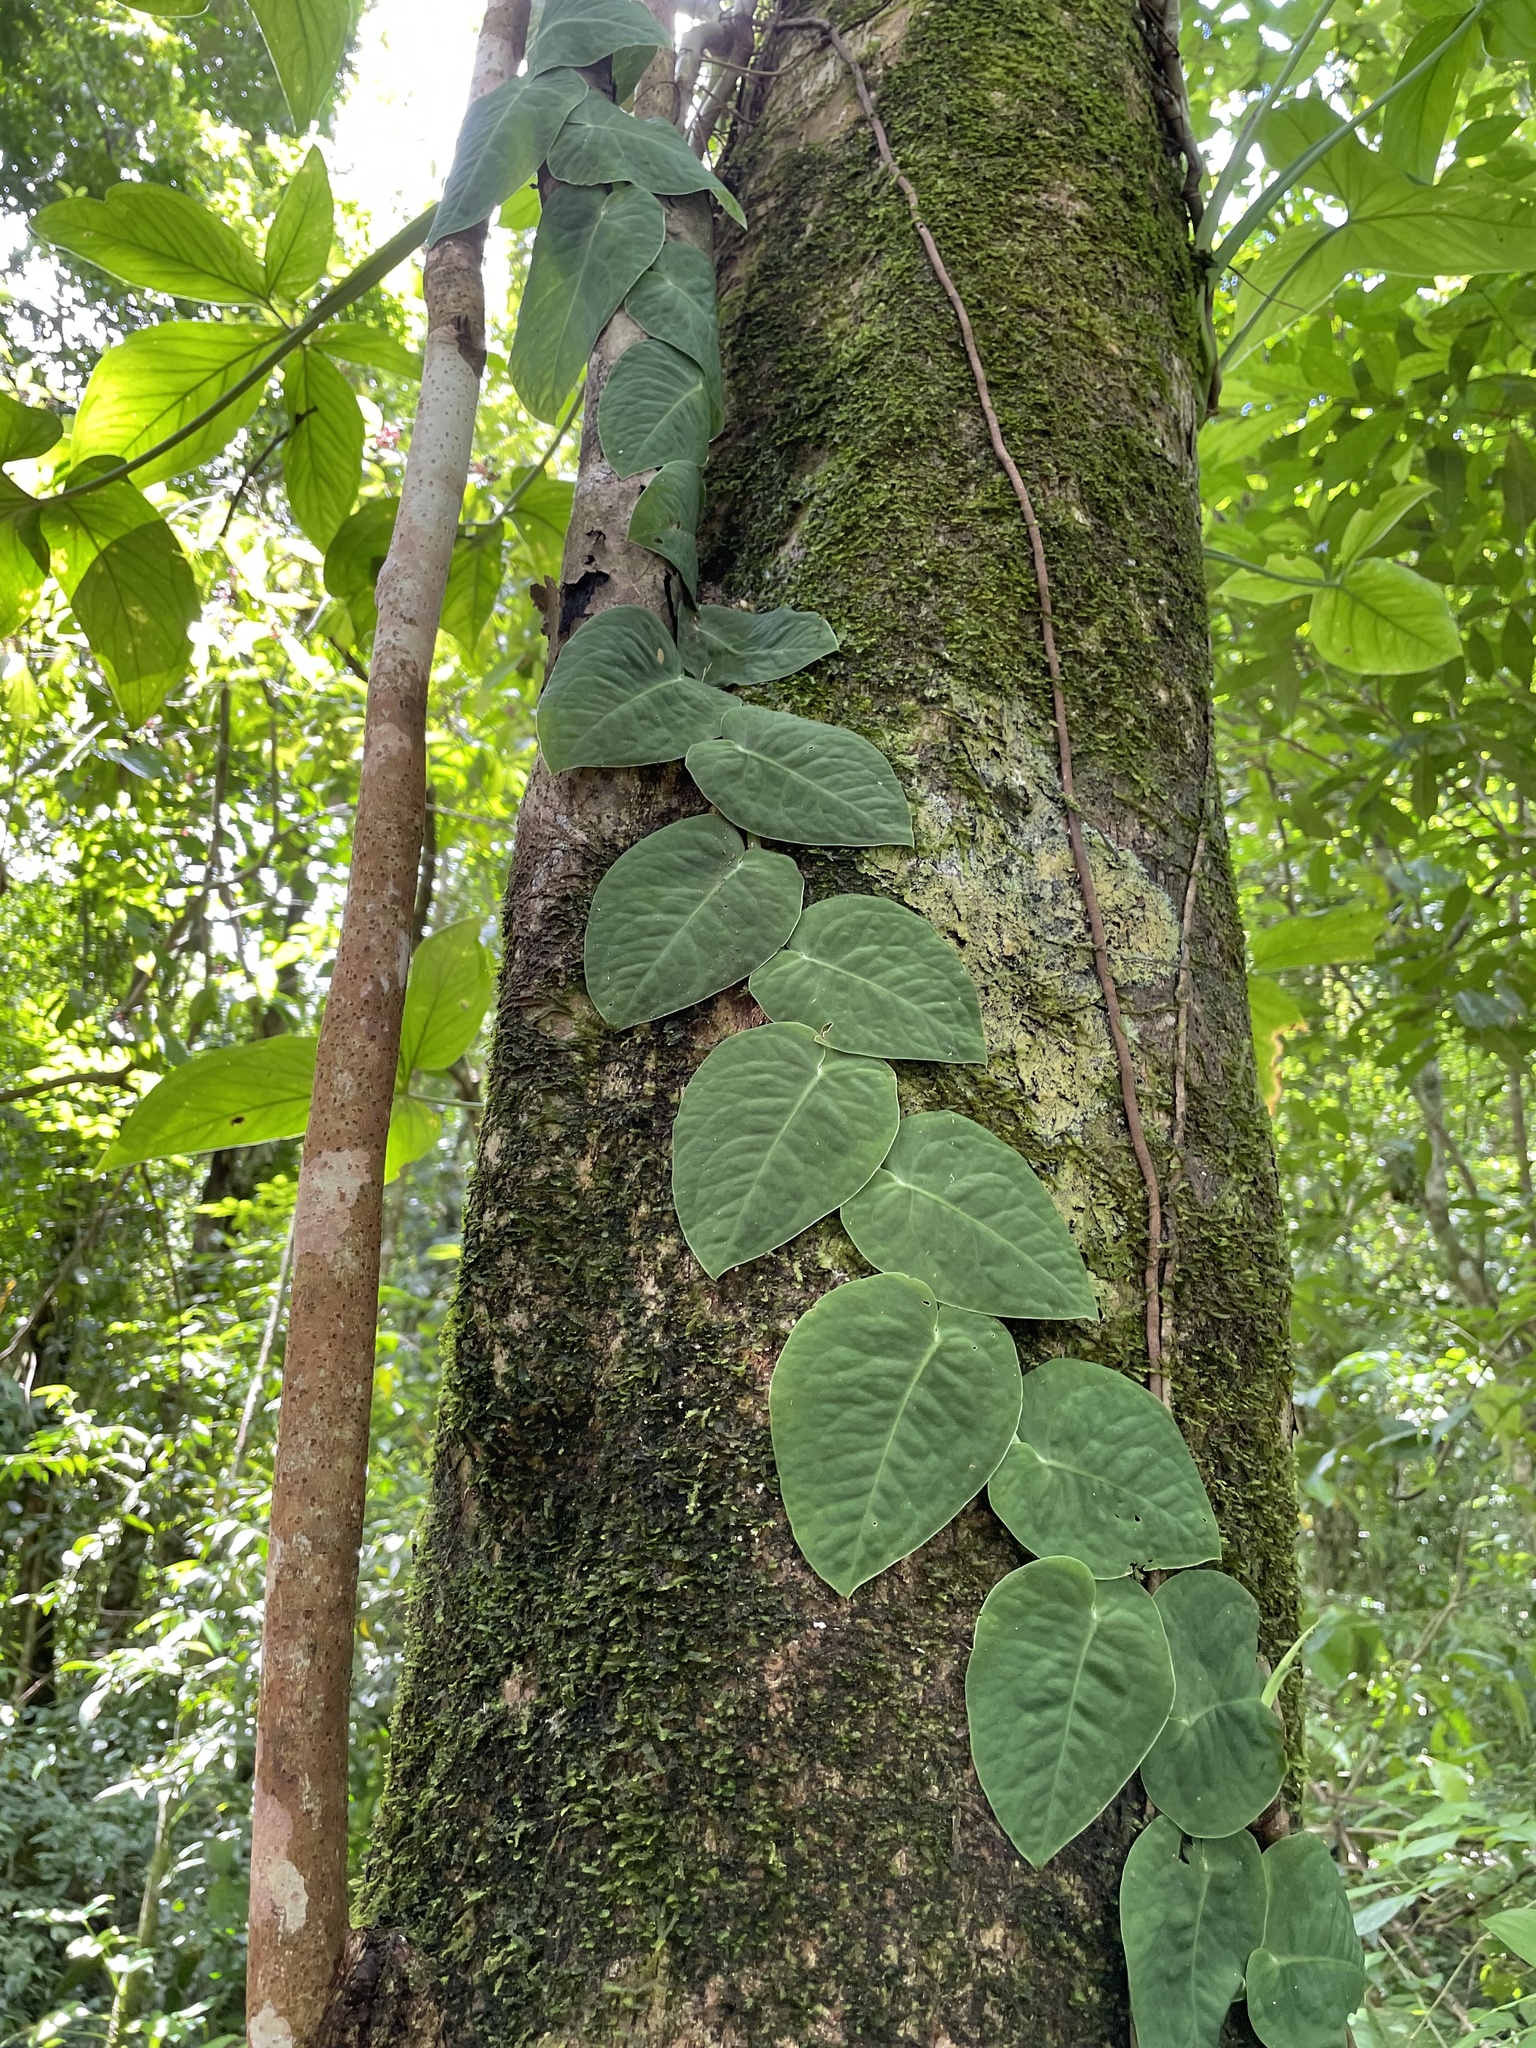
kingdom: Plantae
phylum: Tracheophyta
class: Liliopsida
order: Alismatales
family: Araceae
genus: Monstera
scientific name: Monstera dubia
